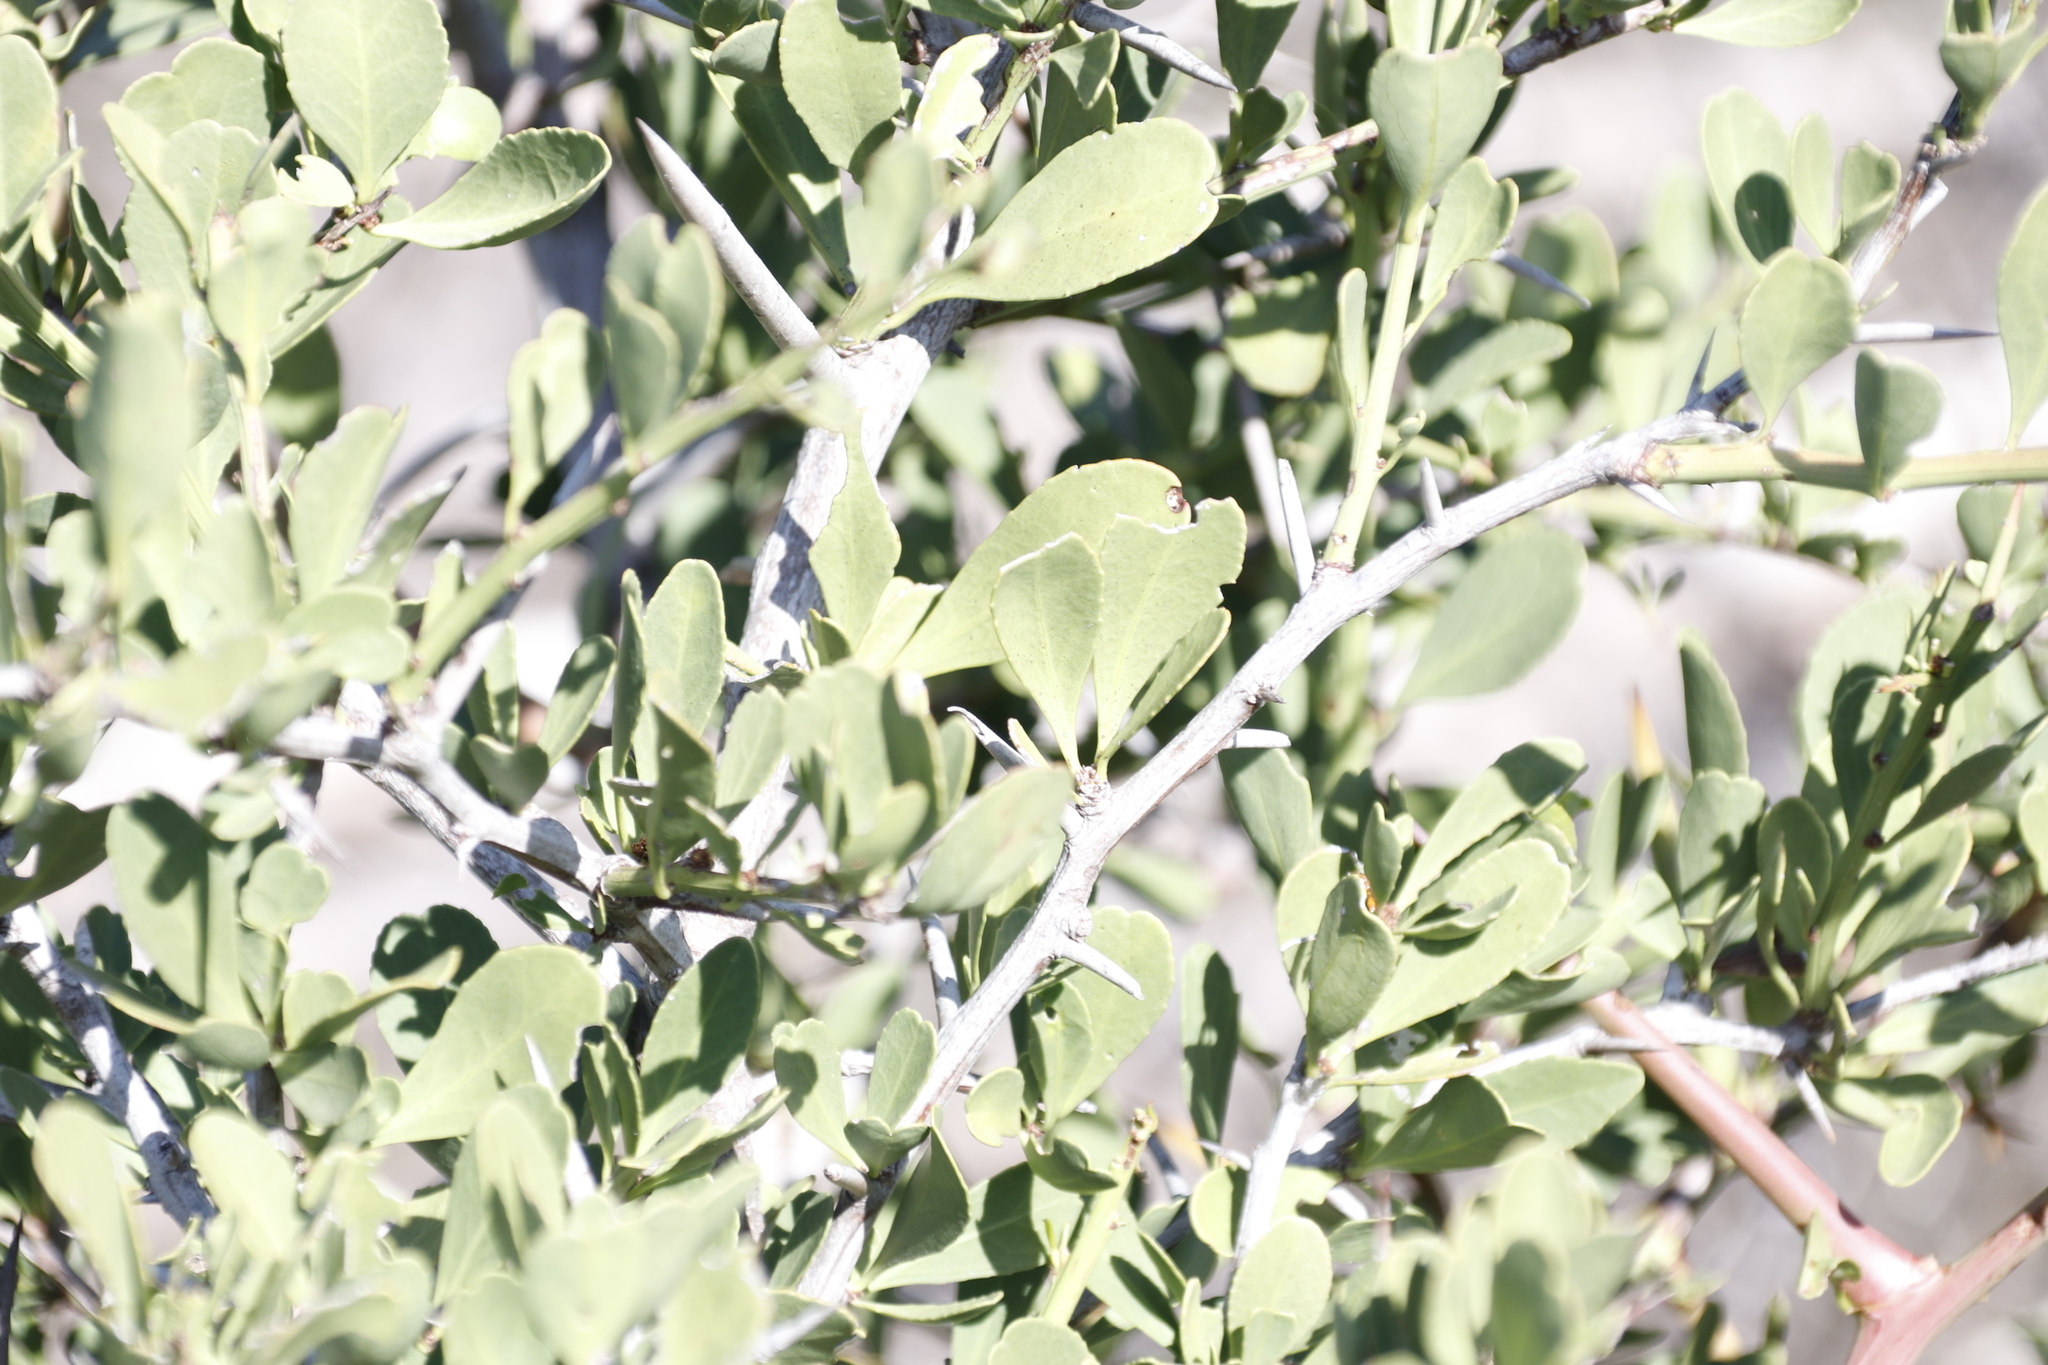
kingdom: Plantae
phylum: Tracheophyta
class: Magnoliopsida
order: Celastrales
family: Celastraceae
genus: Gymnosporia
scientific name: Gymnosporia buxifolia
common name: Common spike-thorn
